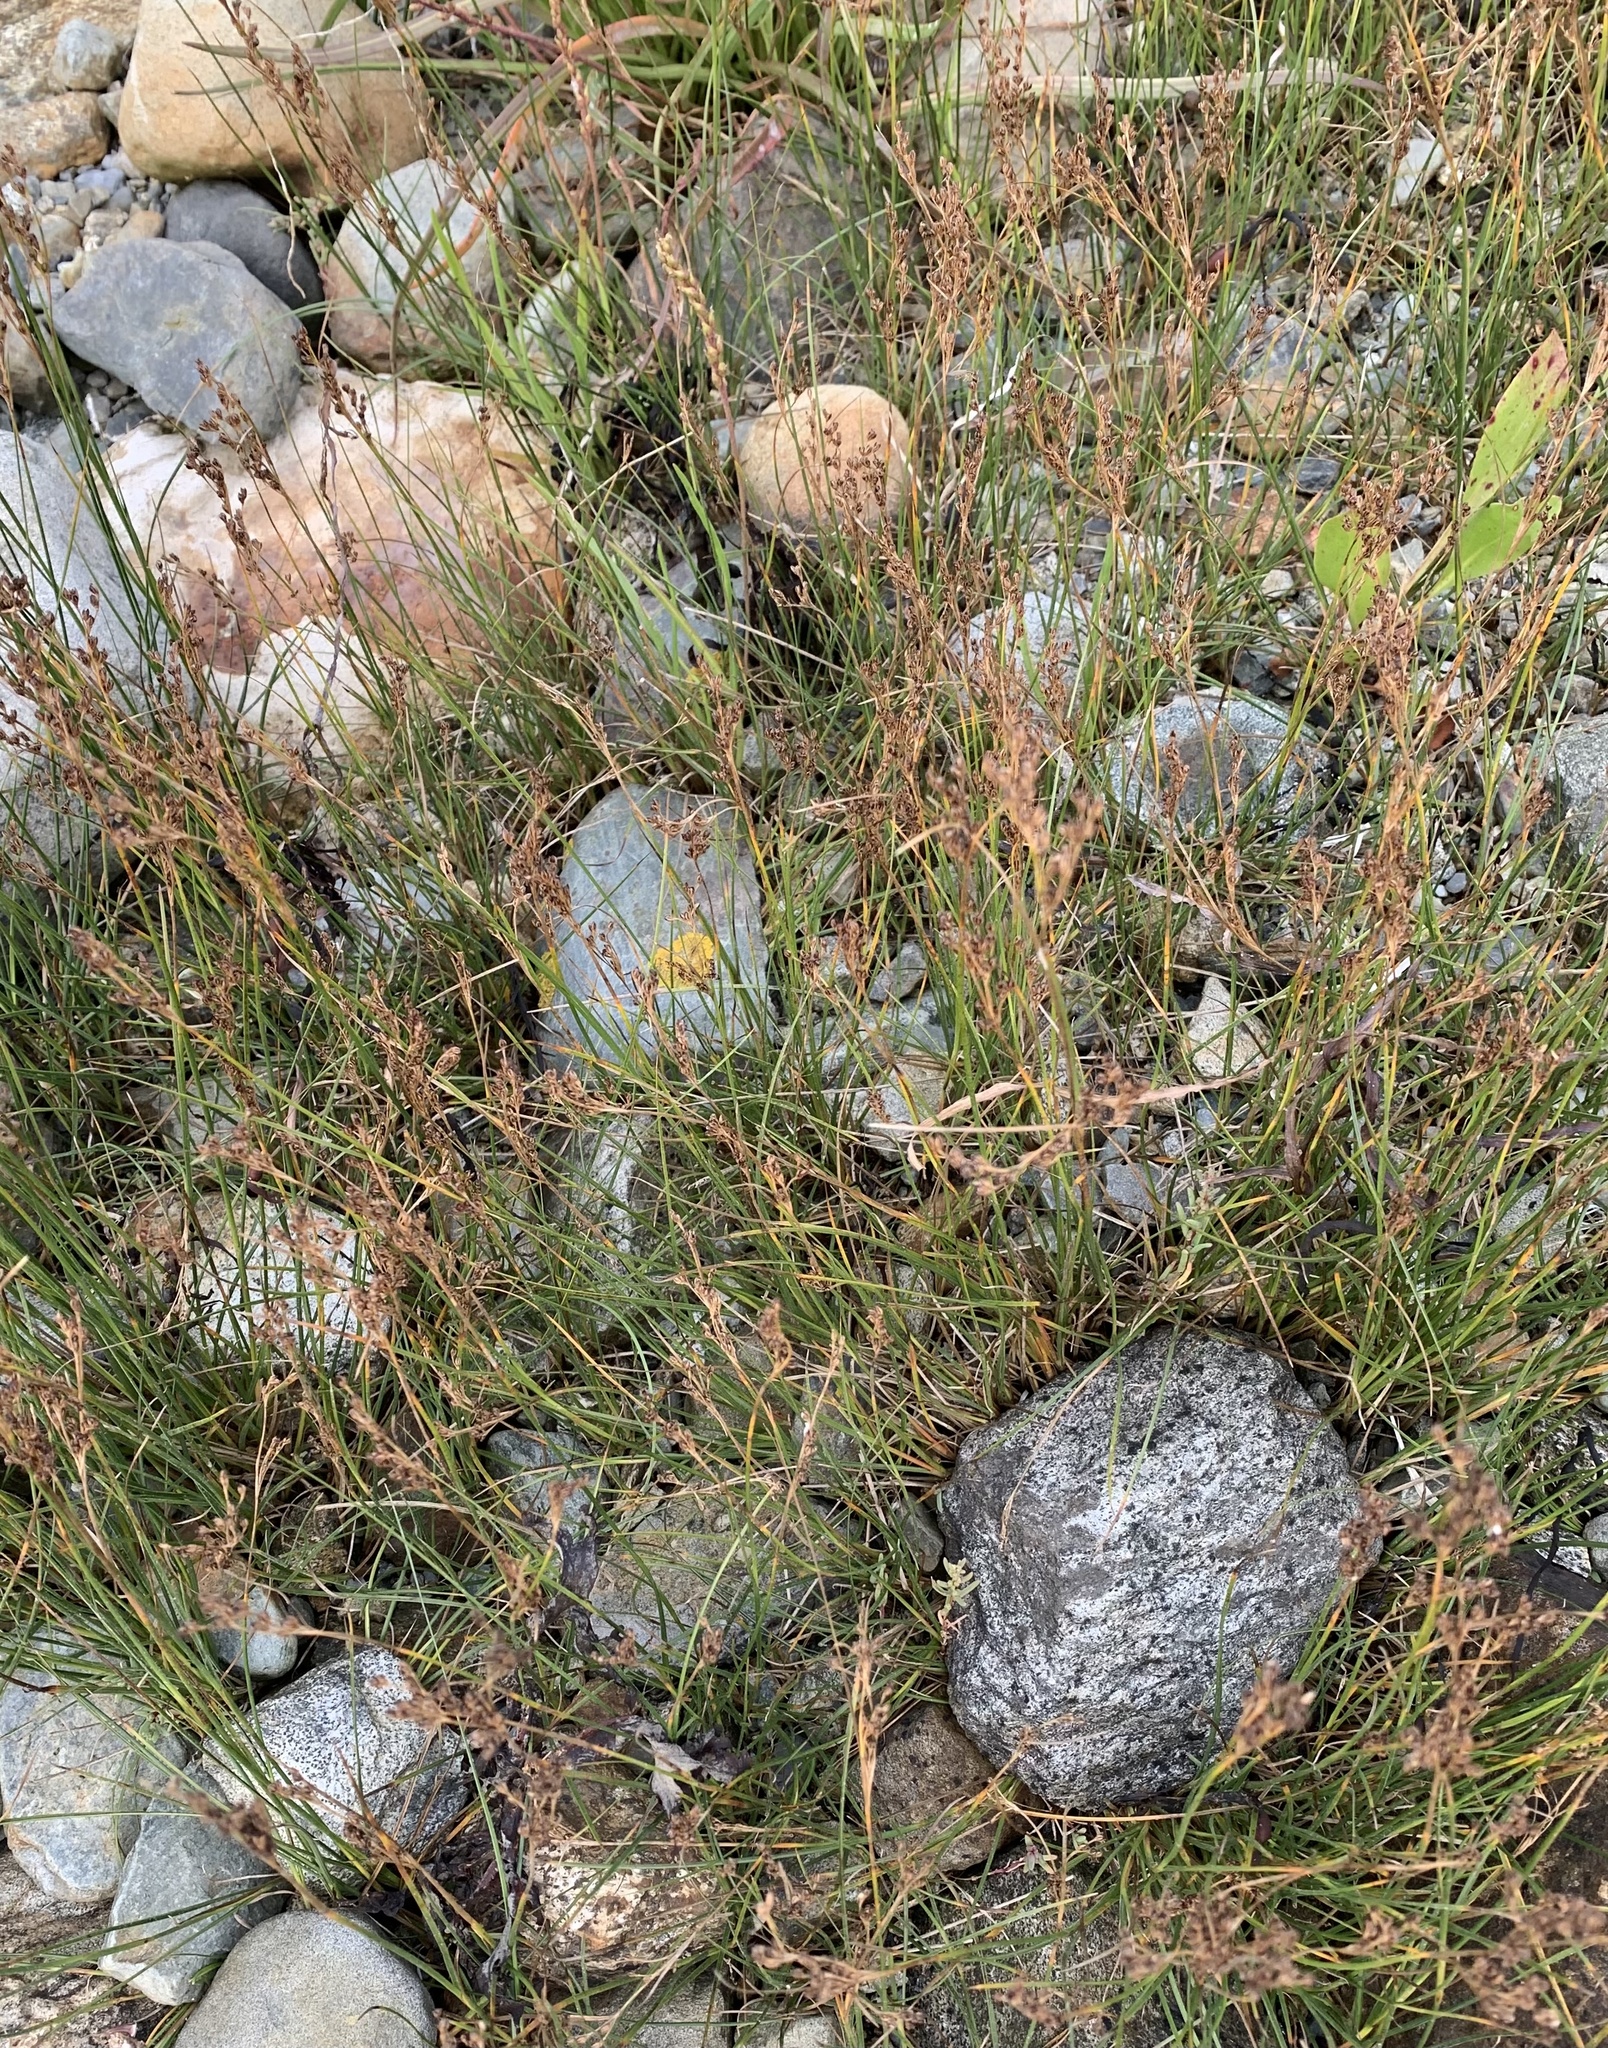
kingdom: Plantae
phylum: Tracheophyta
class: Liliopsida
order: Poales
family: Juncaceae
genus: Juncus
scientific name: Juncus gerardi
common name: Saltmarsh rush
